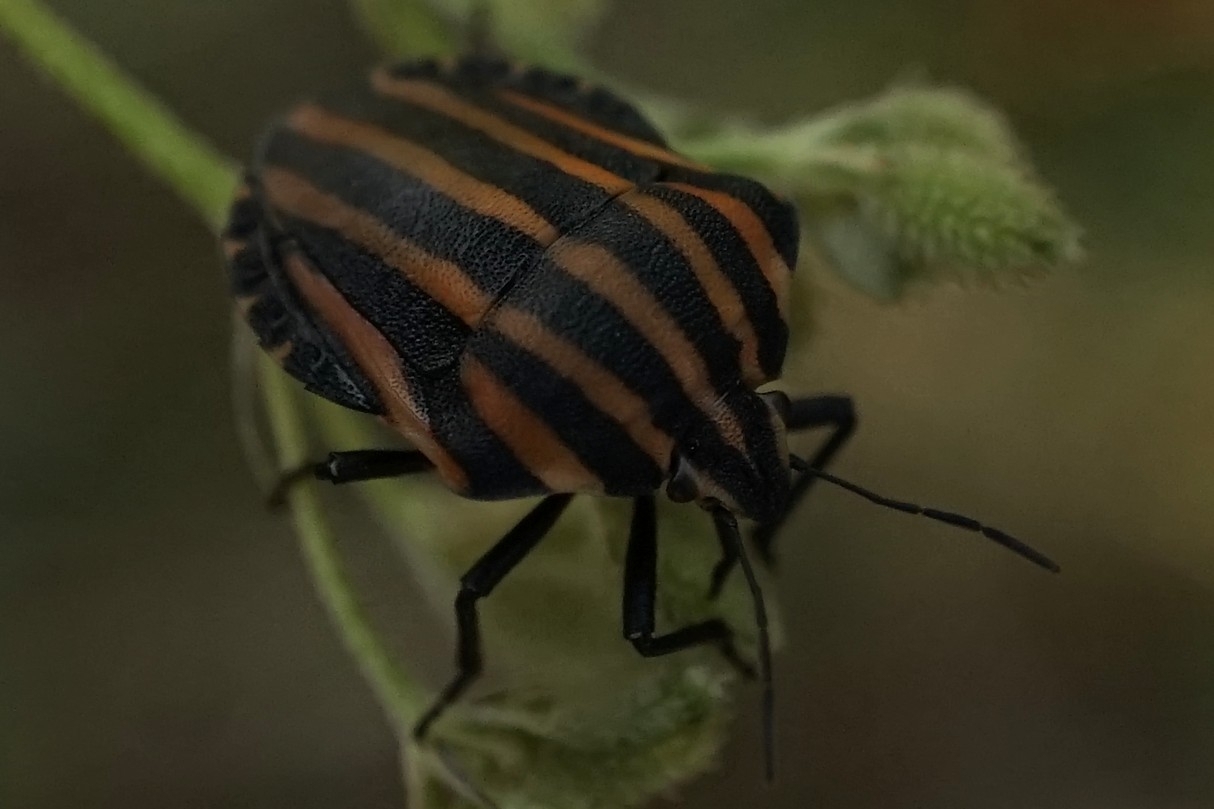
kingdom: Animalia
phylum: Arthropoda
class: Insecta
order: Hemiptera
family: Pentatomidae
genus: Graphosoma
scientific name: Graphosoma rubrolineatum
